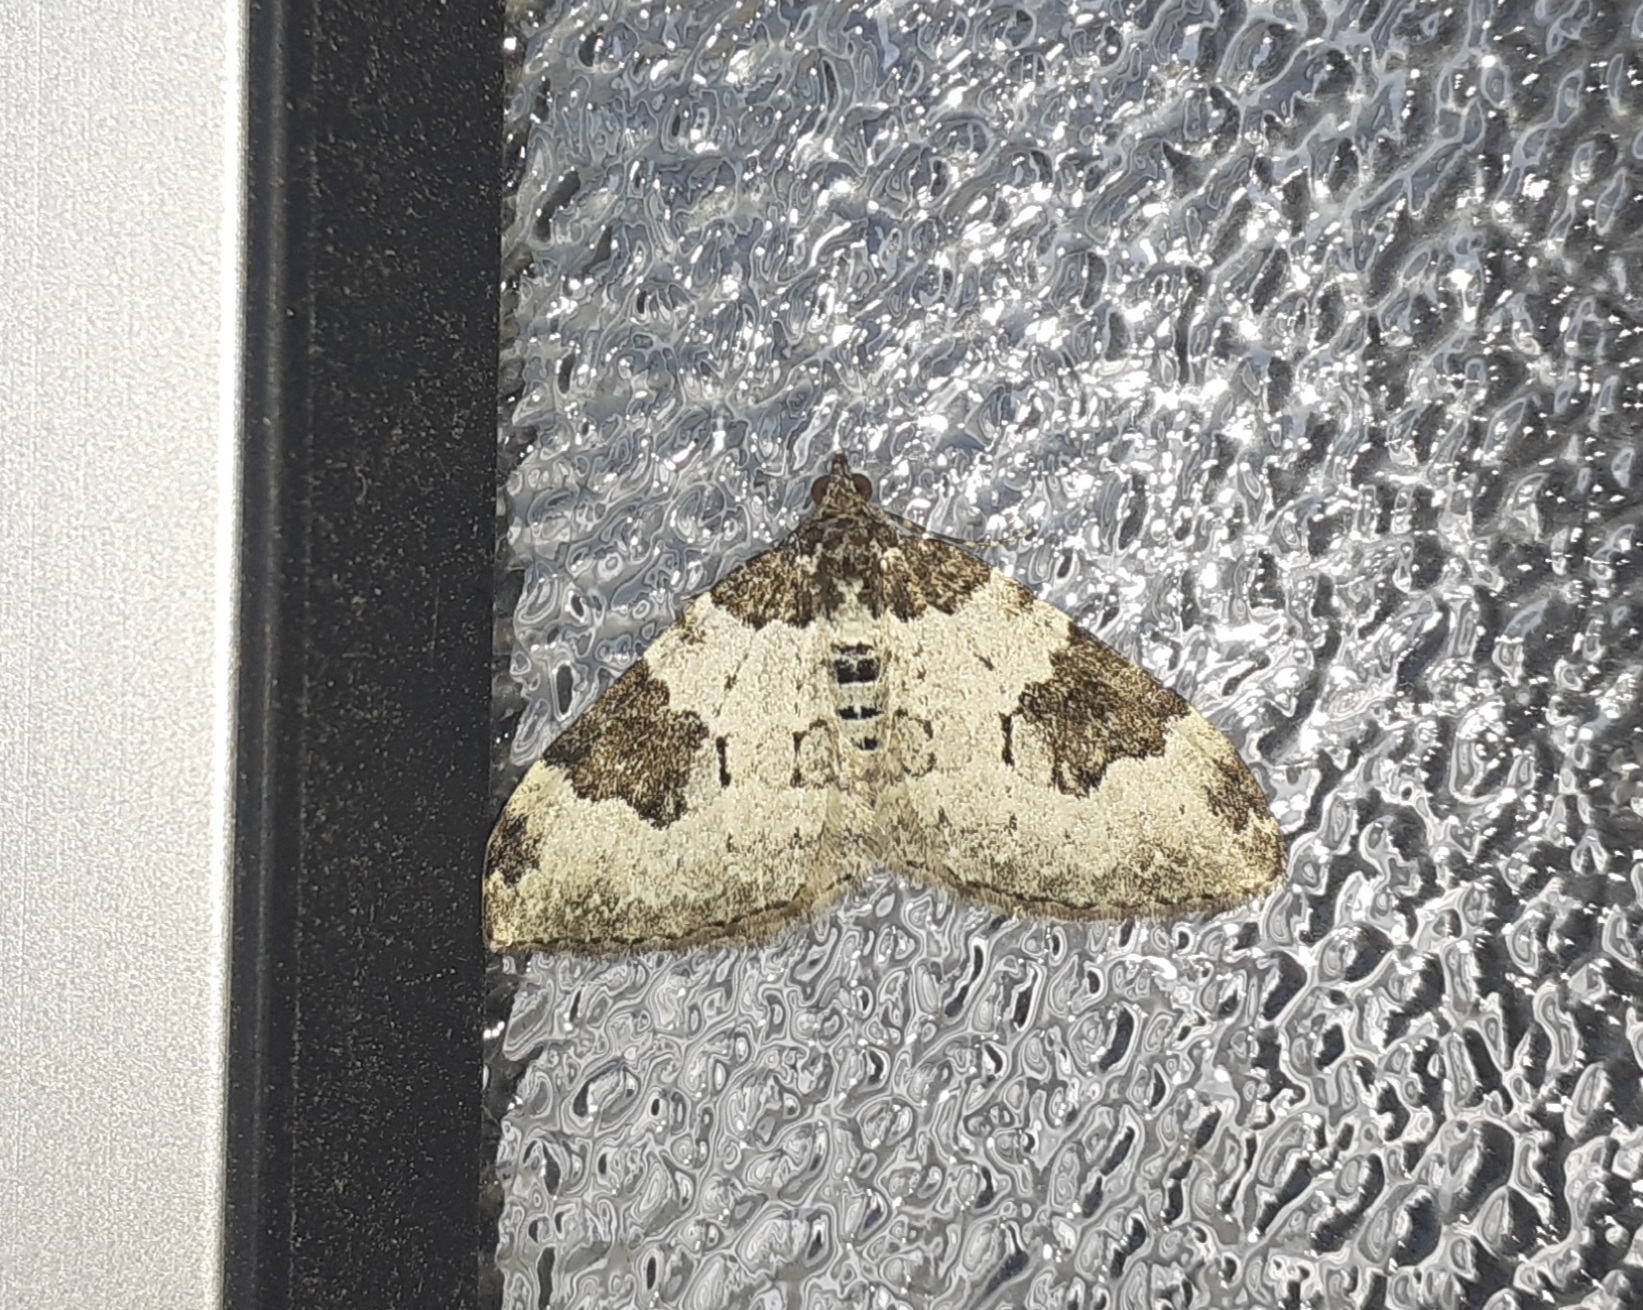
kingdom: Animalia
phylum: Arthropoda
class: Insecta
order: Lepidoptera
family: Geometridae
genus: Xanthorhoe
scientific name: Xanthorhoe fluctuata
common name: Garden carpet
